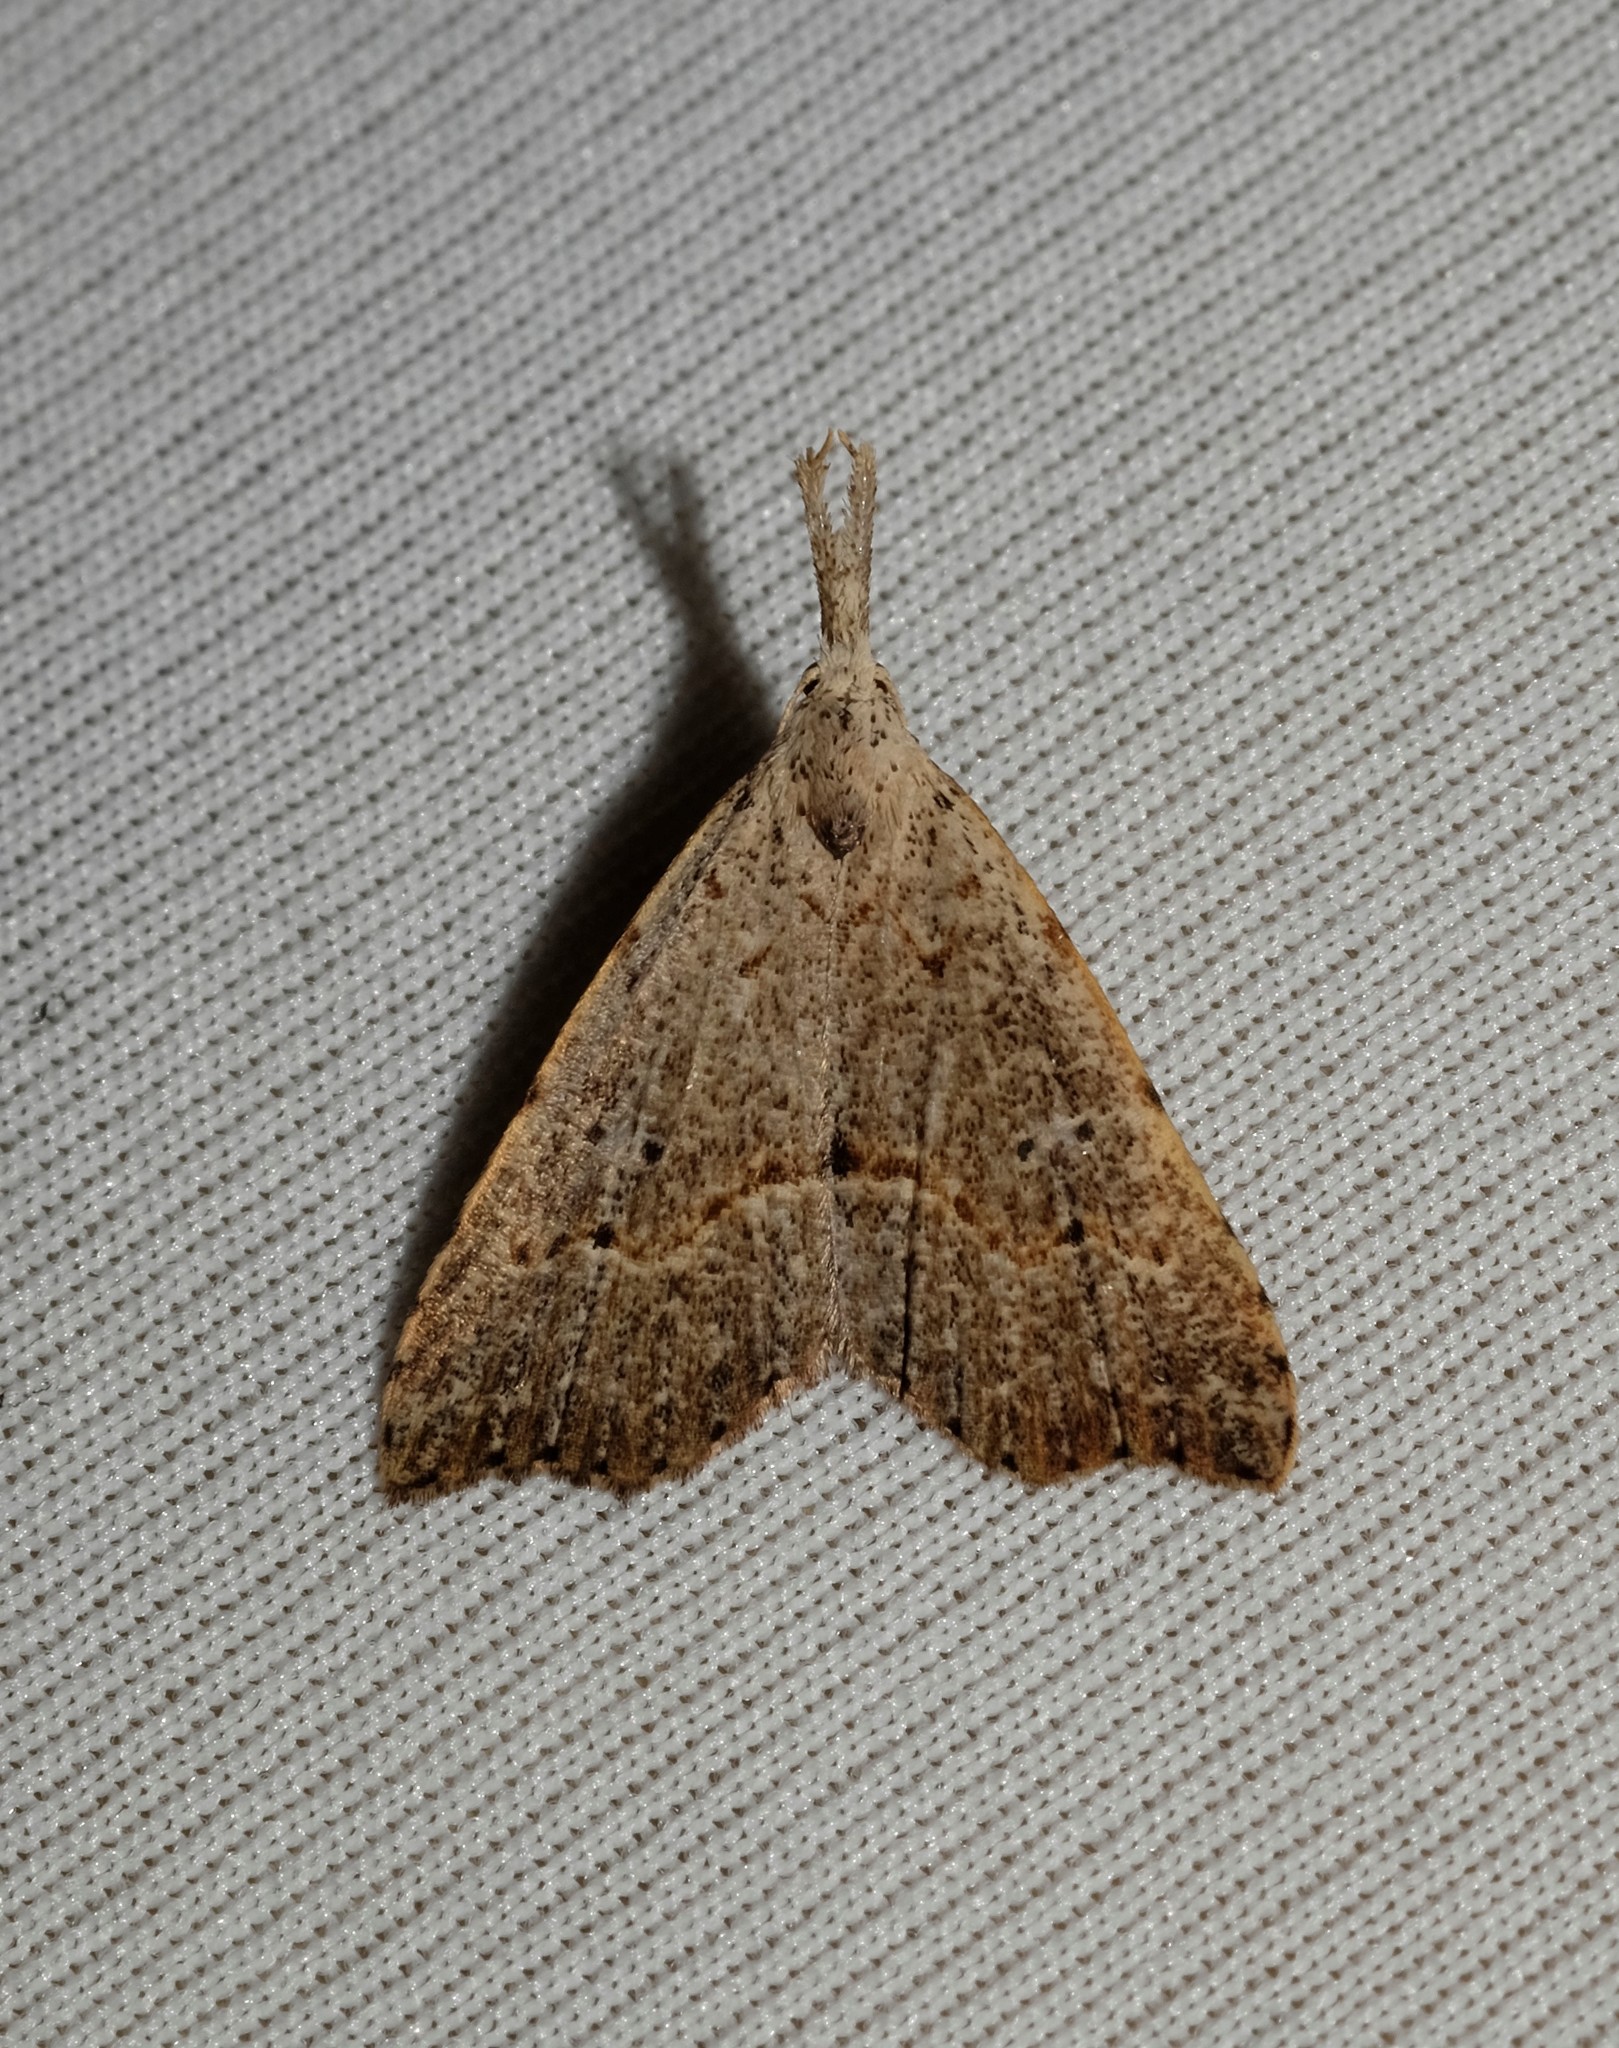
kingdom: Animalia
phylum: Arthropoda
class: Insecta
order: Lepidoptera
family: Erebidae
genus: Trigonistis
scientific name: Trigonistis asthenopa
